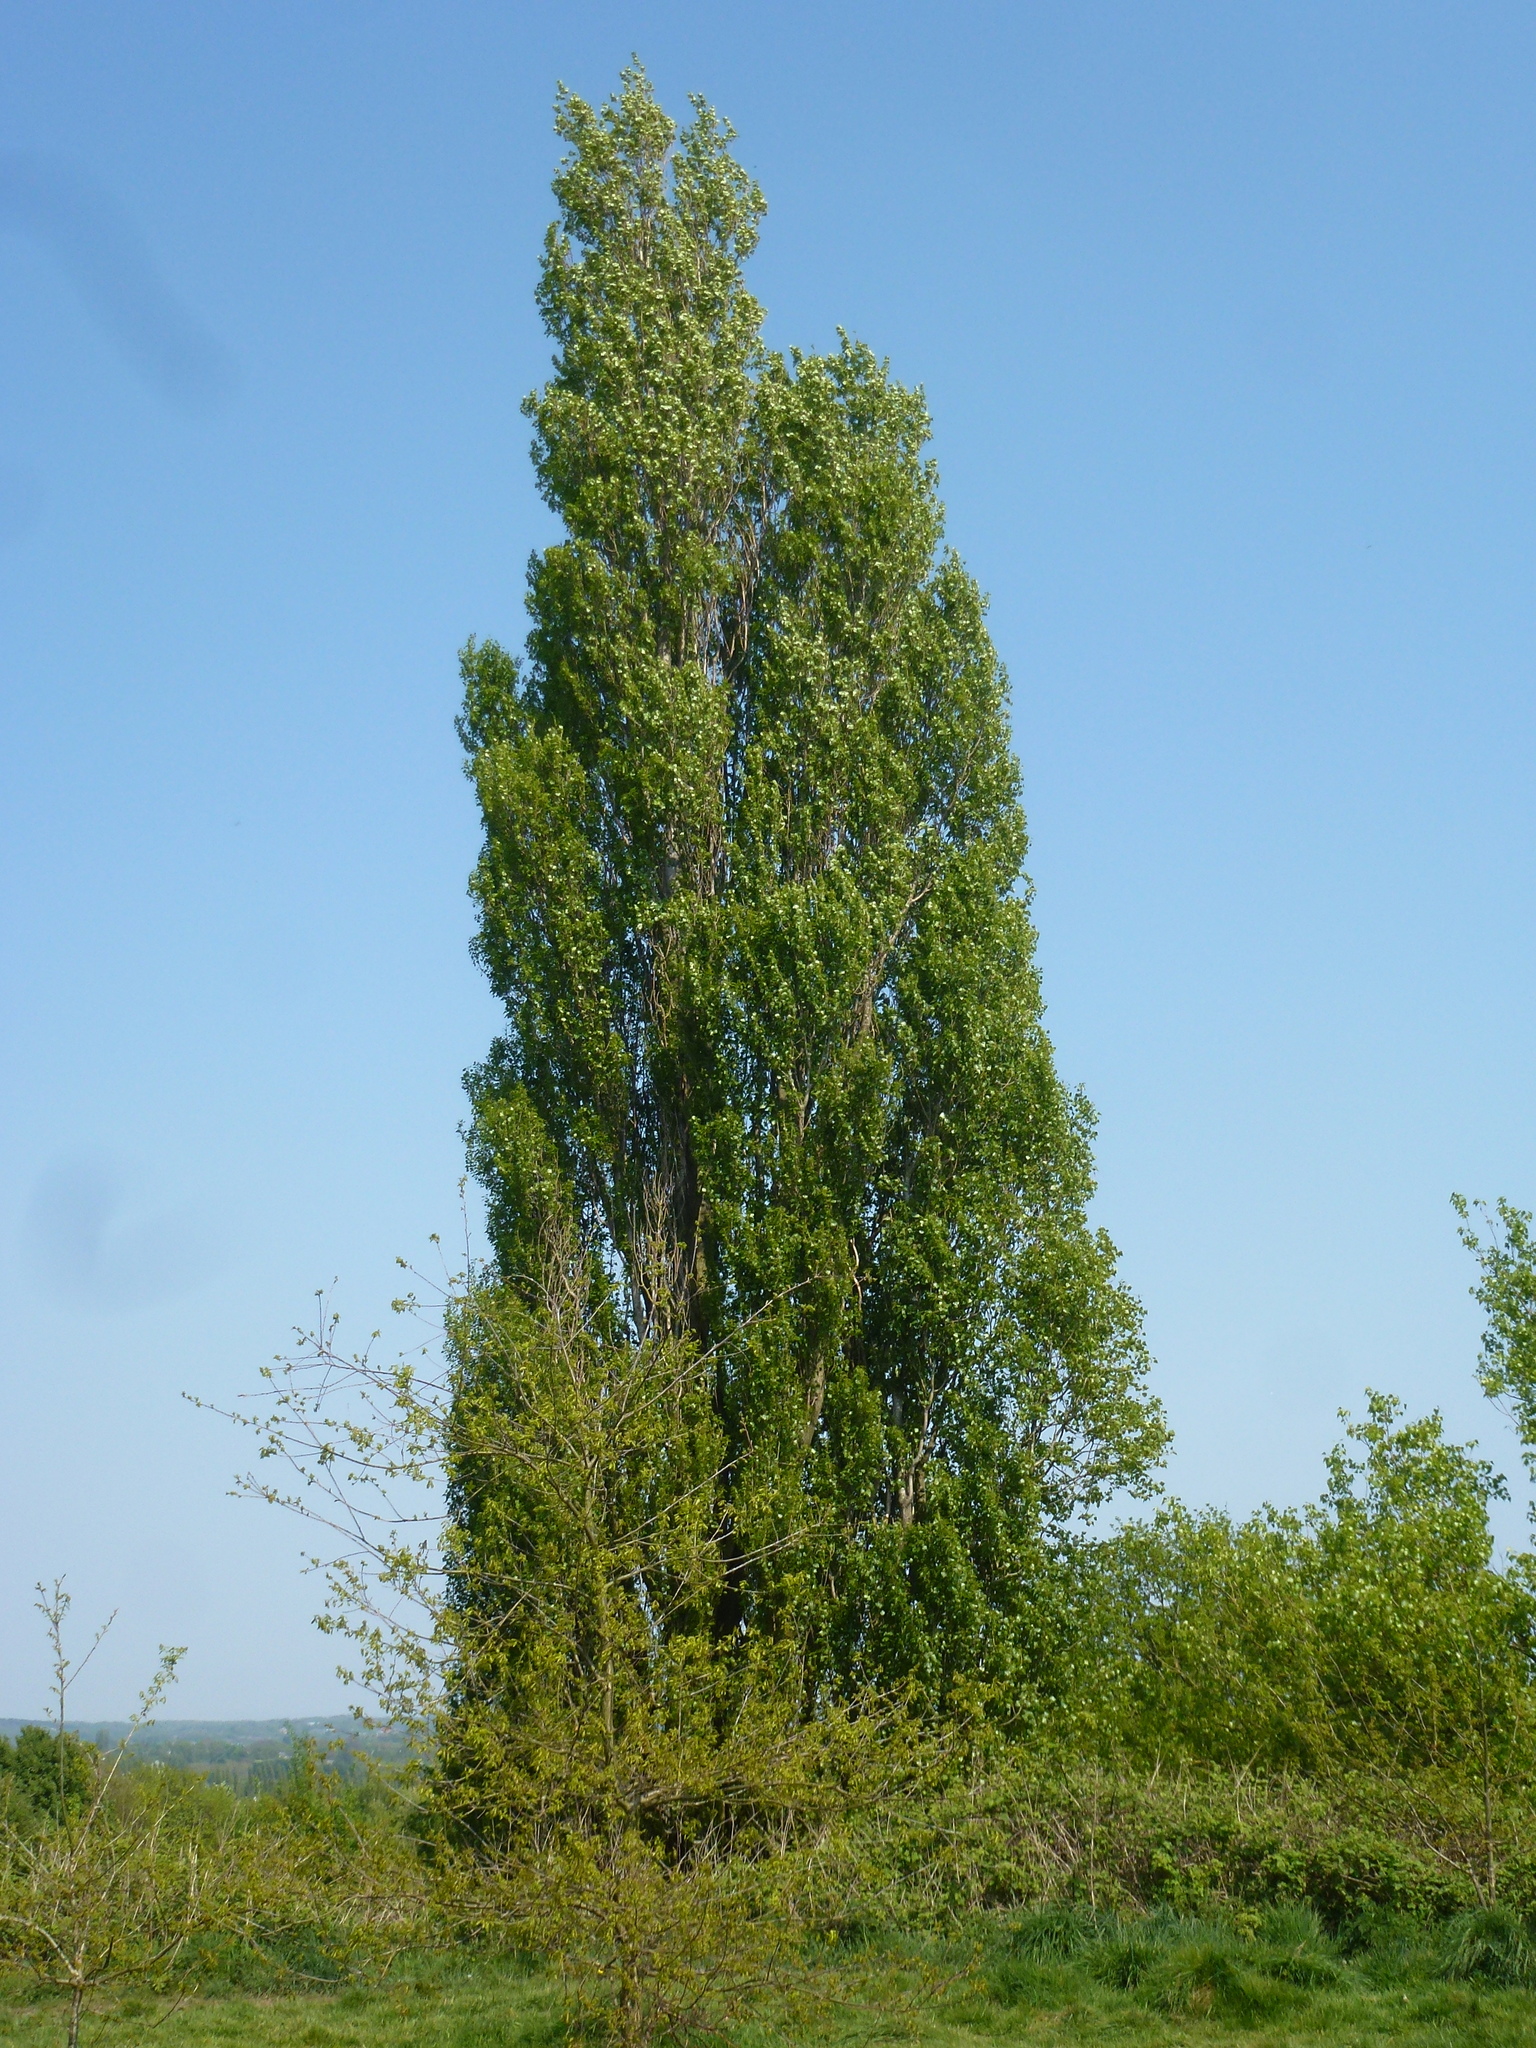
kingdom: Plantae
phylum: Tracheophyta
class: Magnoliopsida
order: Malpighiales
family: Salicaceae
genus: Populus
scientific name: Populus nigra
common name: Black poplar
